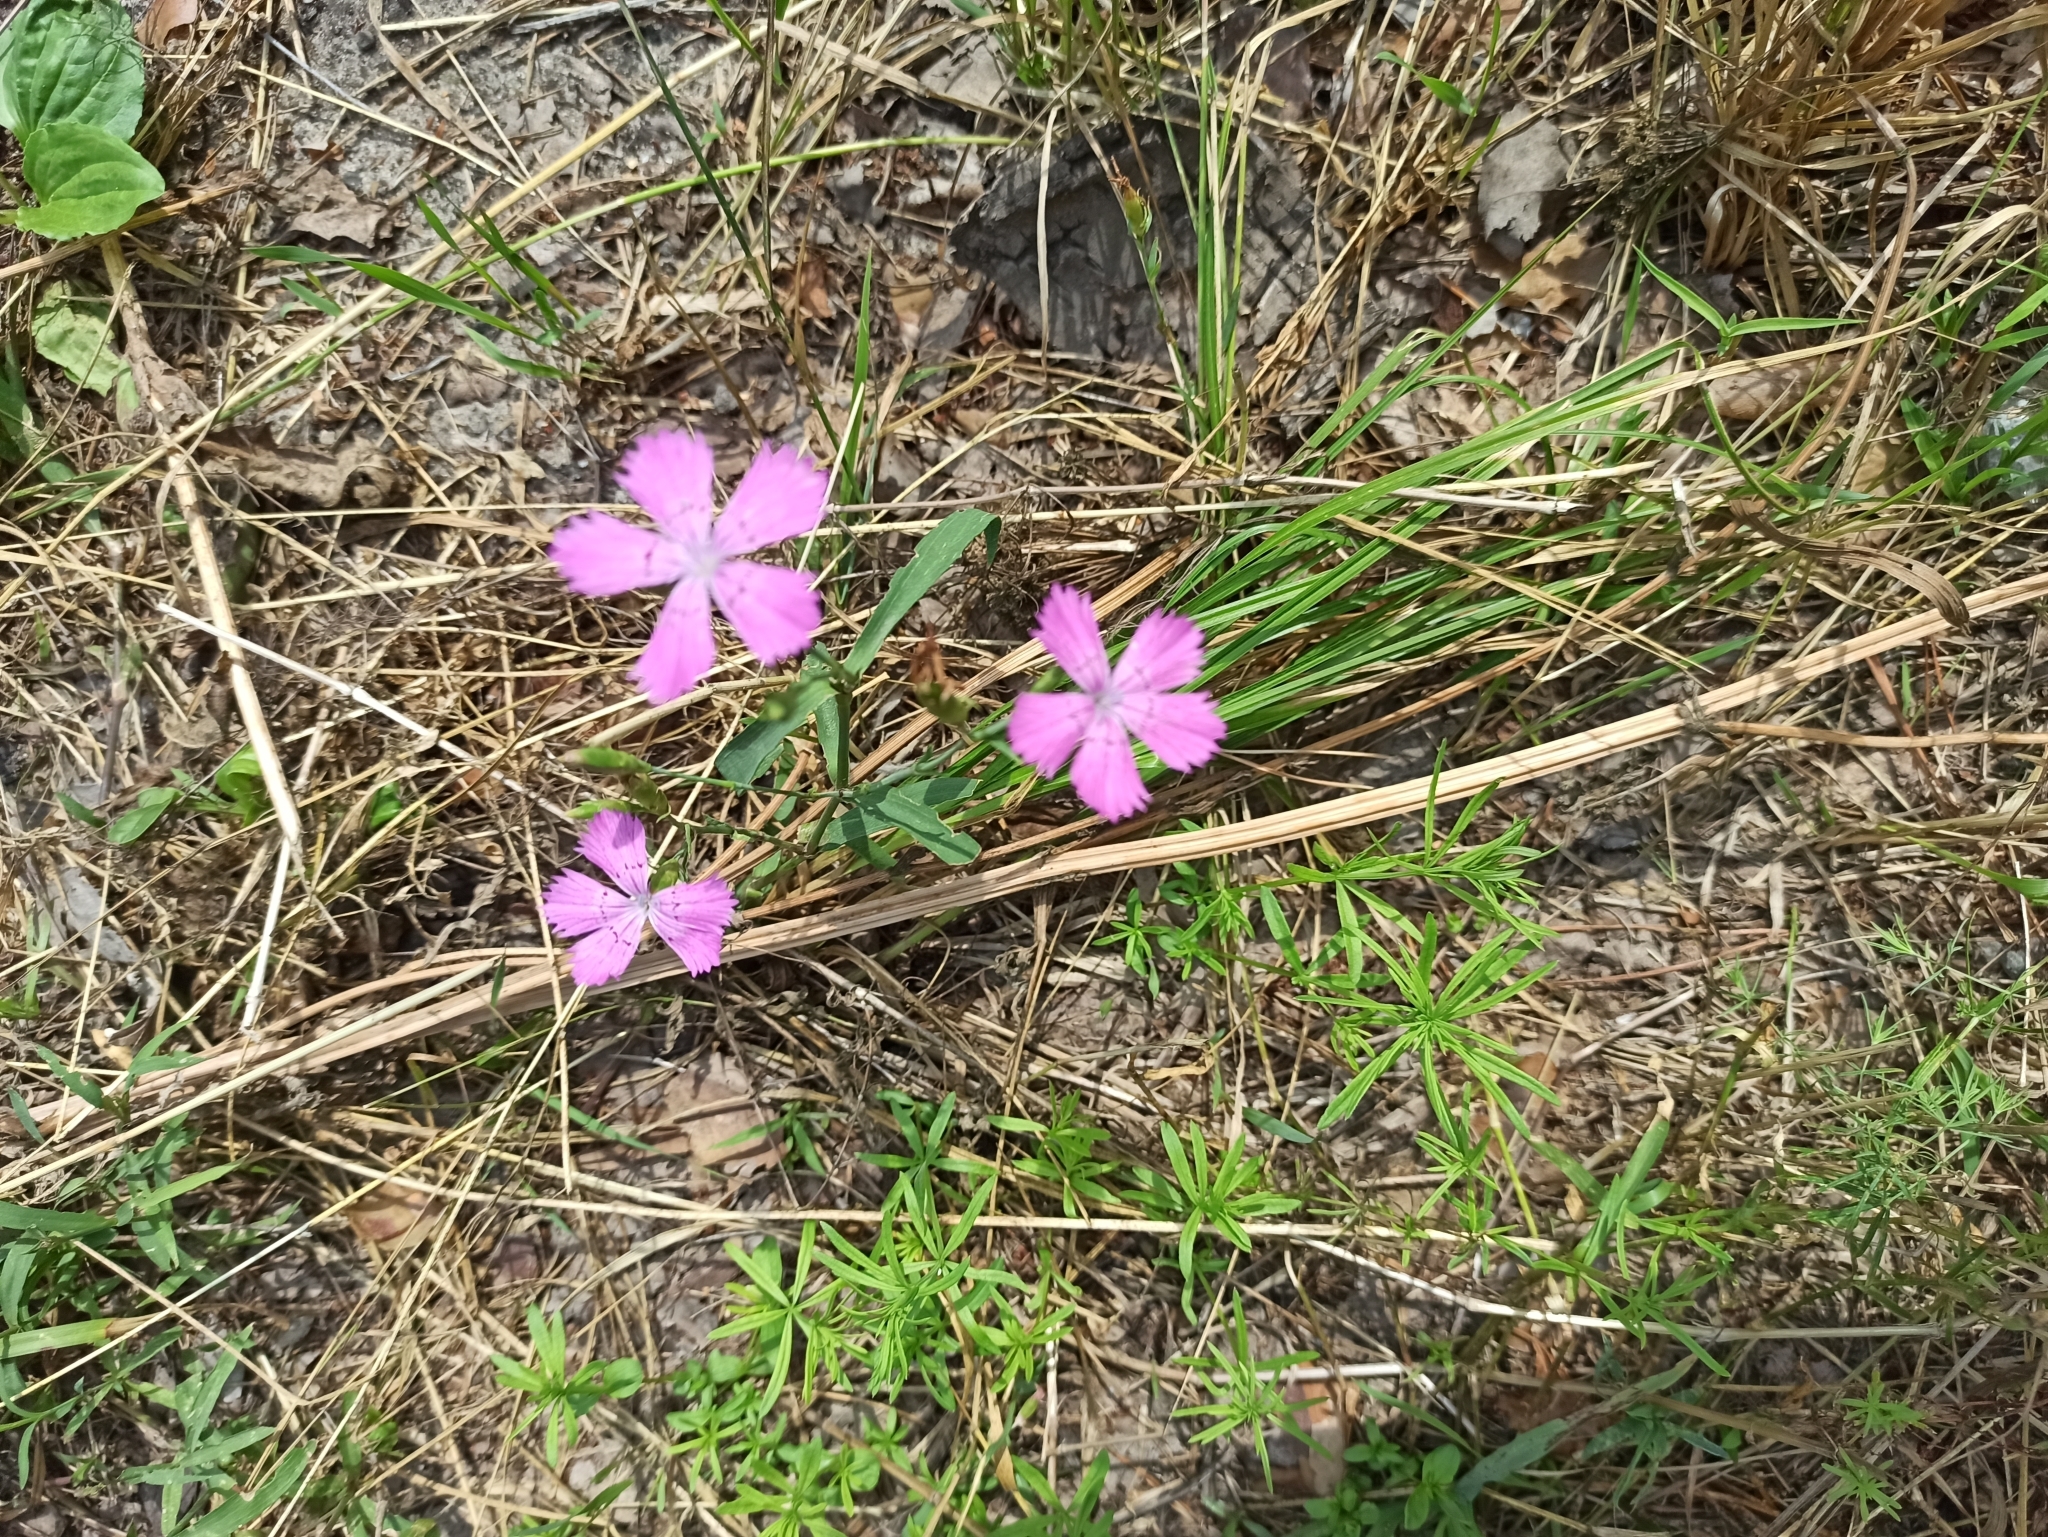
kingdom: Plantae
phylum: Tracheophyta
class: Magnoliopsida
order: Caryophyllales
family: Caryophyllaceae
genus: Dianthus
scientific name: Dianthus chinensis
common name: Rainbow pink
